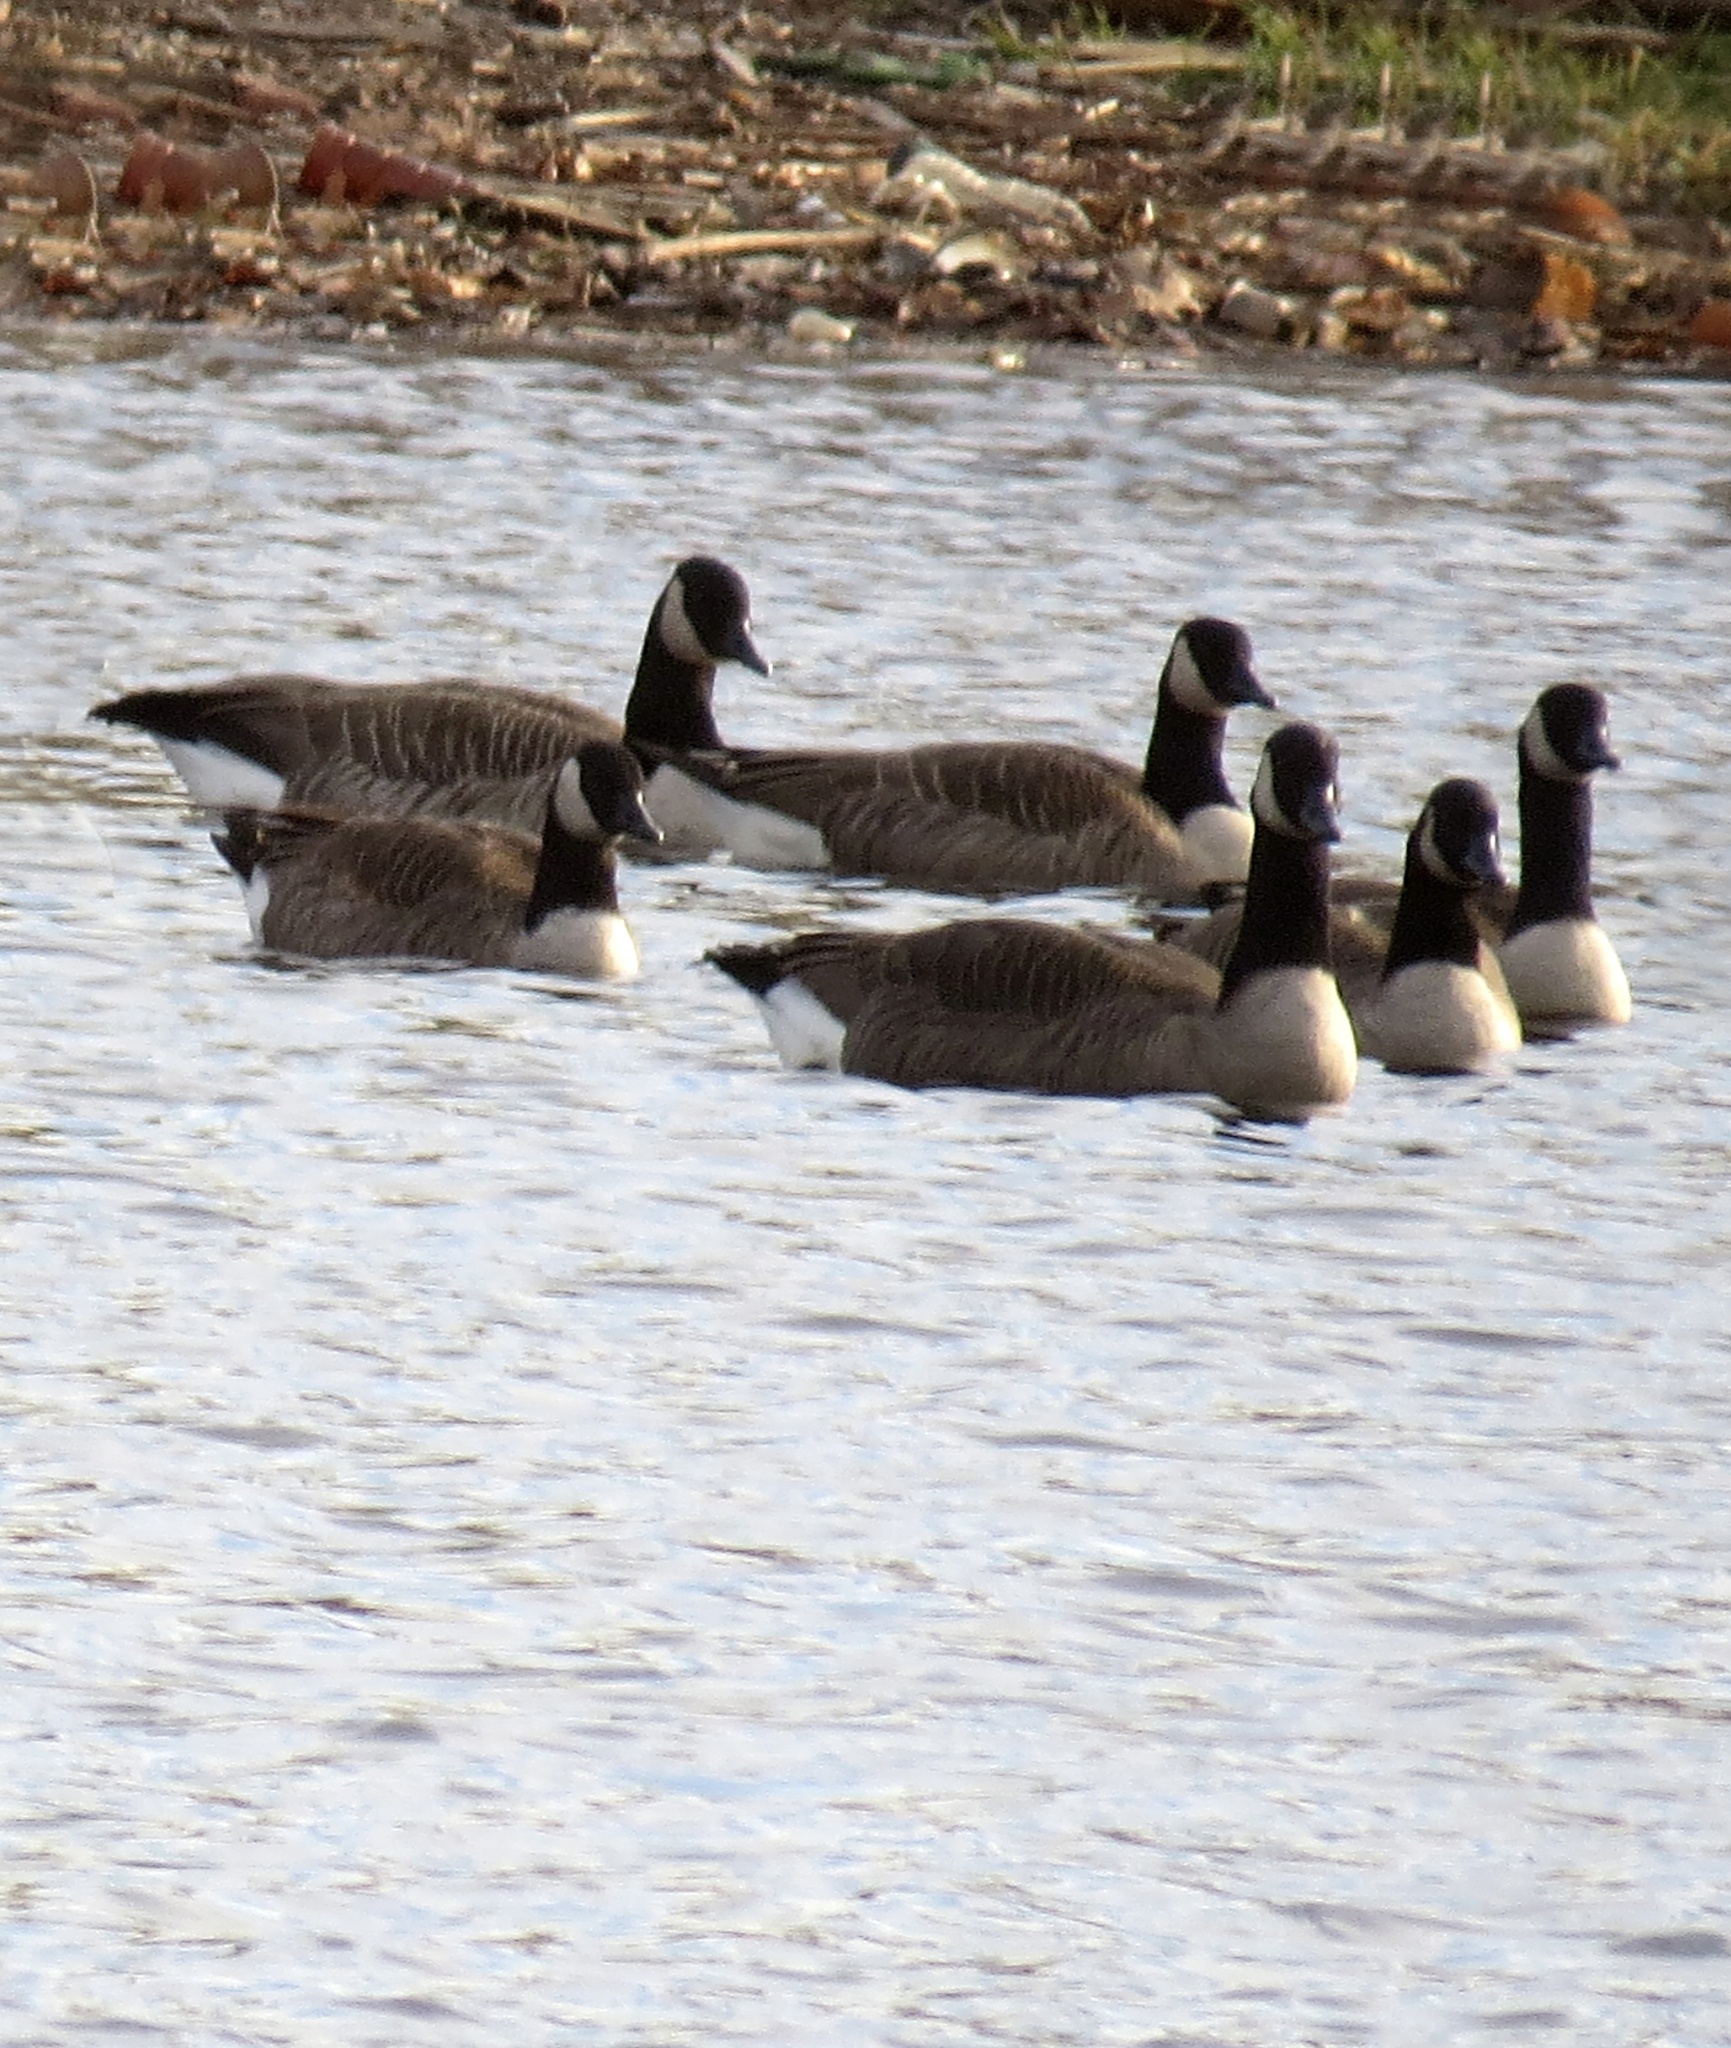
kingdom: Animalia
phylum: Chordata
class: Aves
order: Anseriformes
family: Anatidae
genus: Branta
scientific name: Branta canadensis
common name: Canada goose
